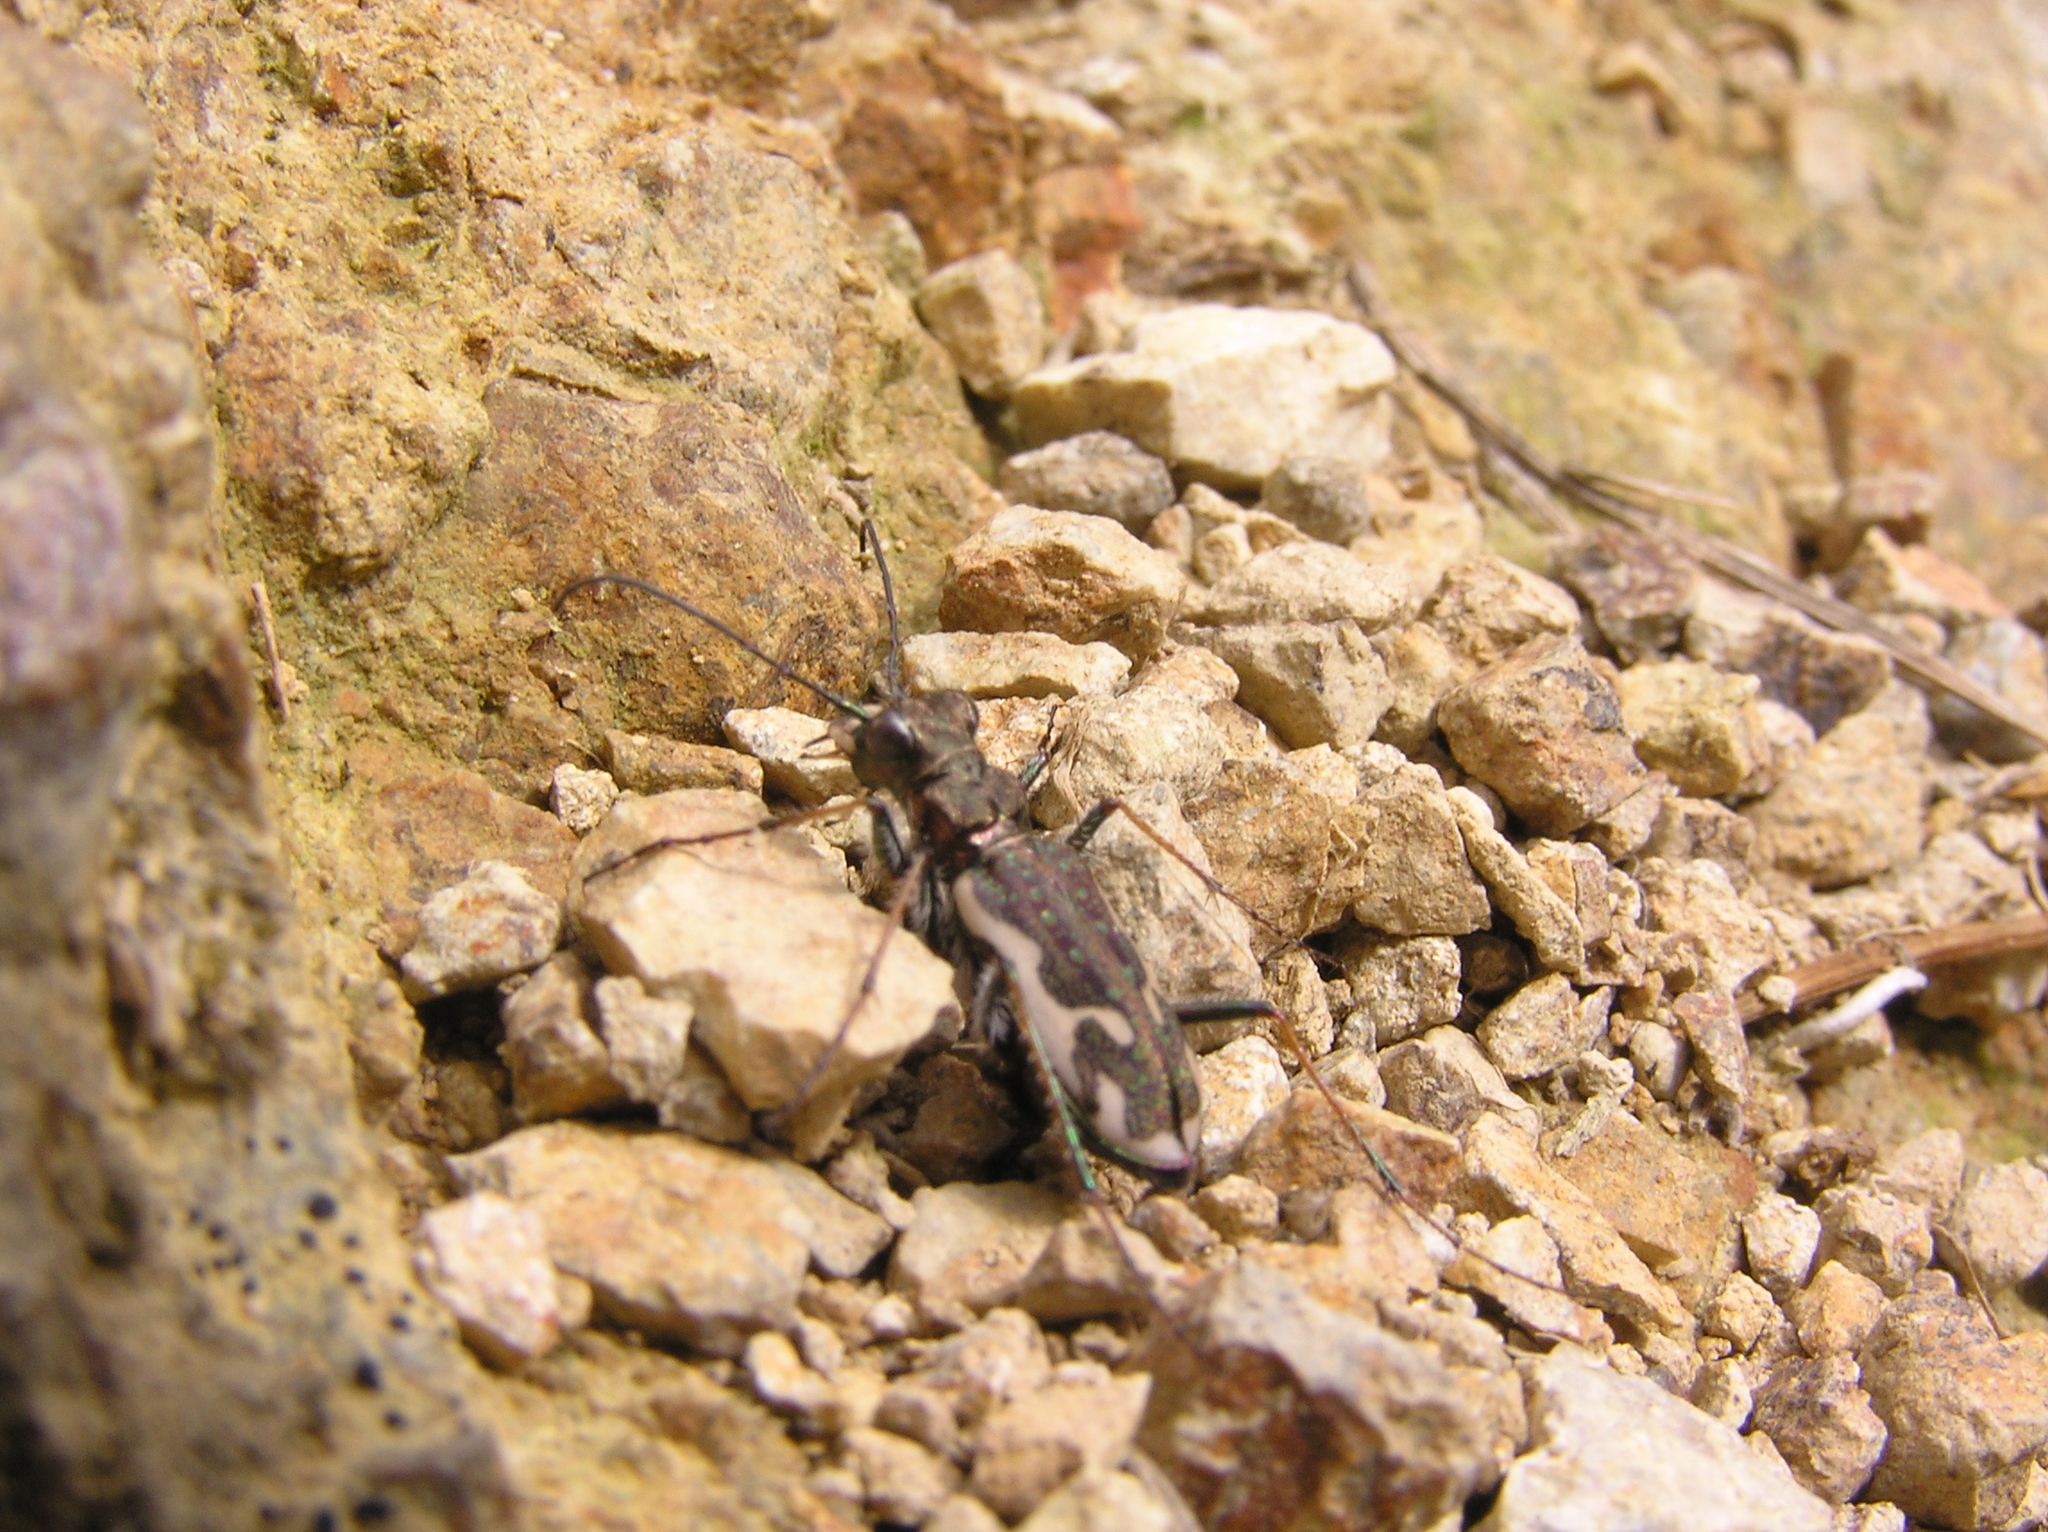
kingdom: Animalia
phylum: Arthropoda
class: Insecta
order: Coleoptera
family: Carabidae
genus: Neocicindela
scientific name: Neocicindela tuberculata
